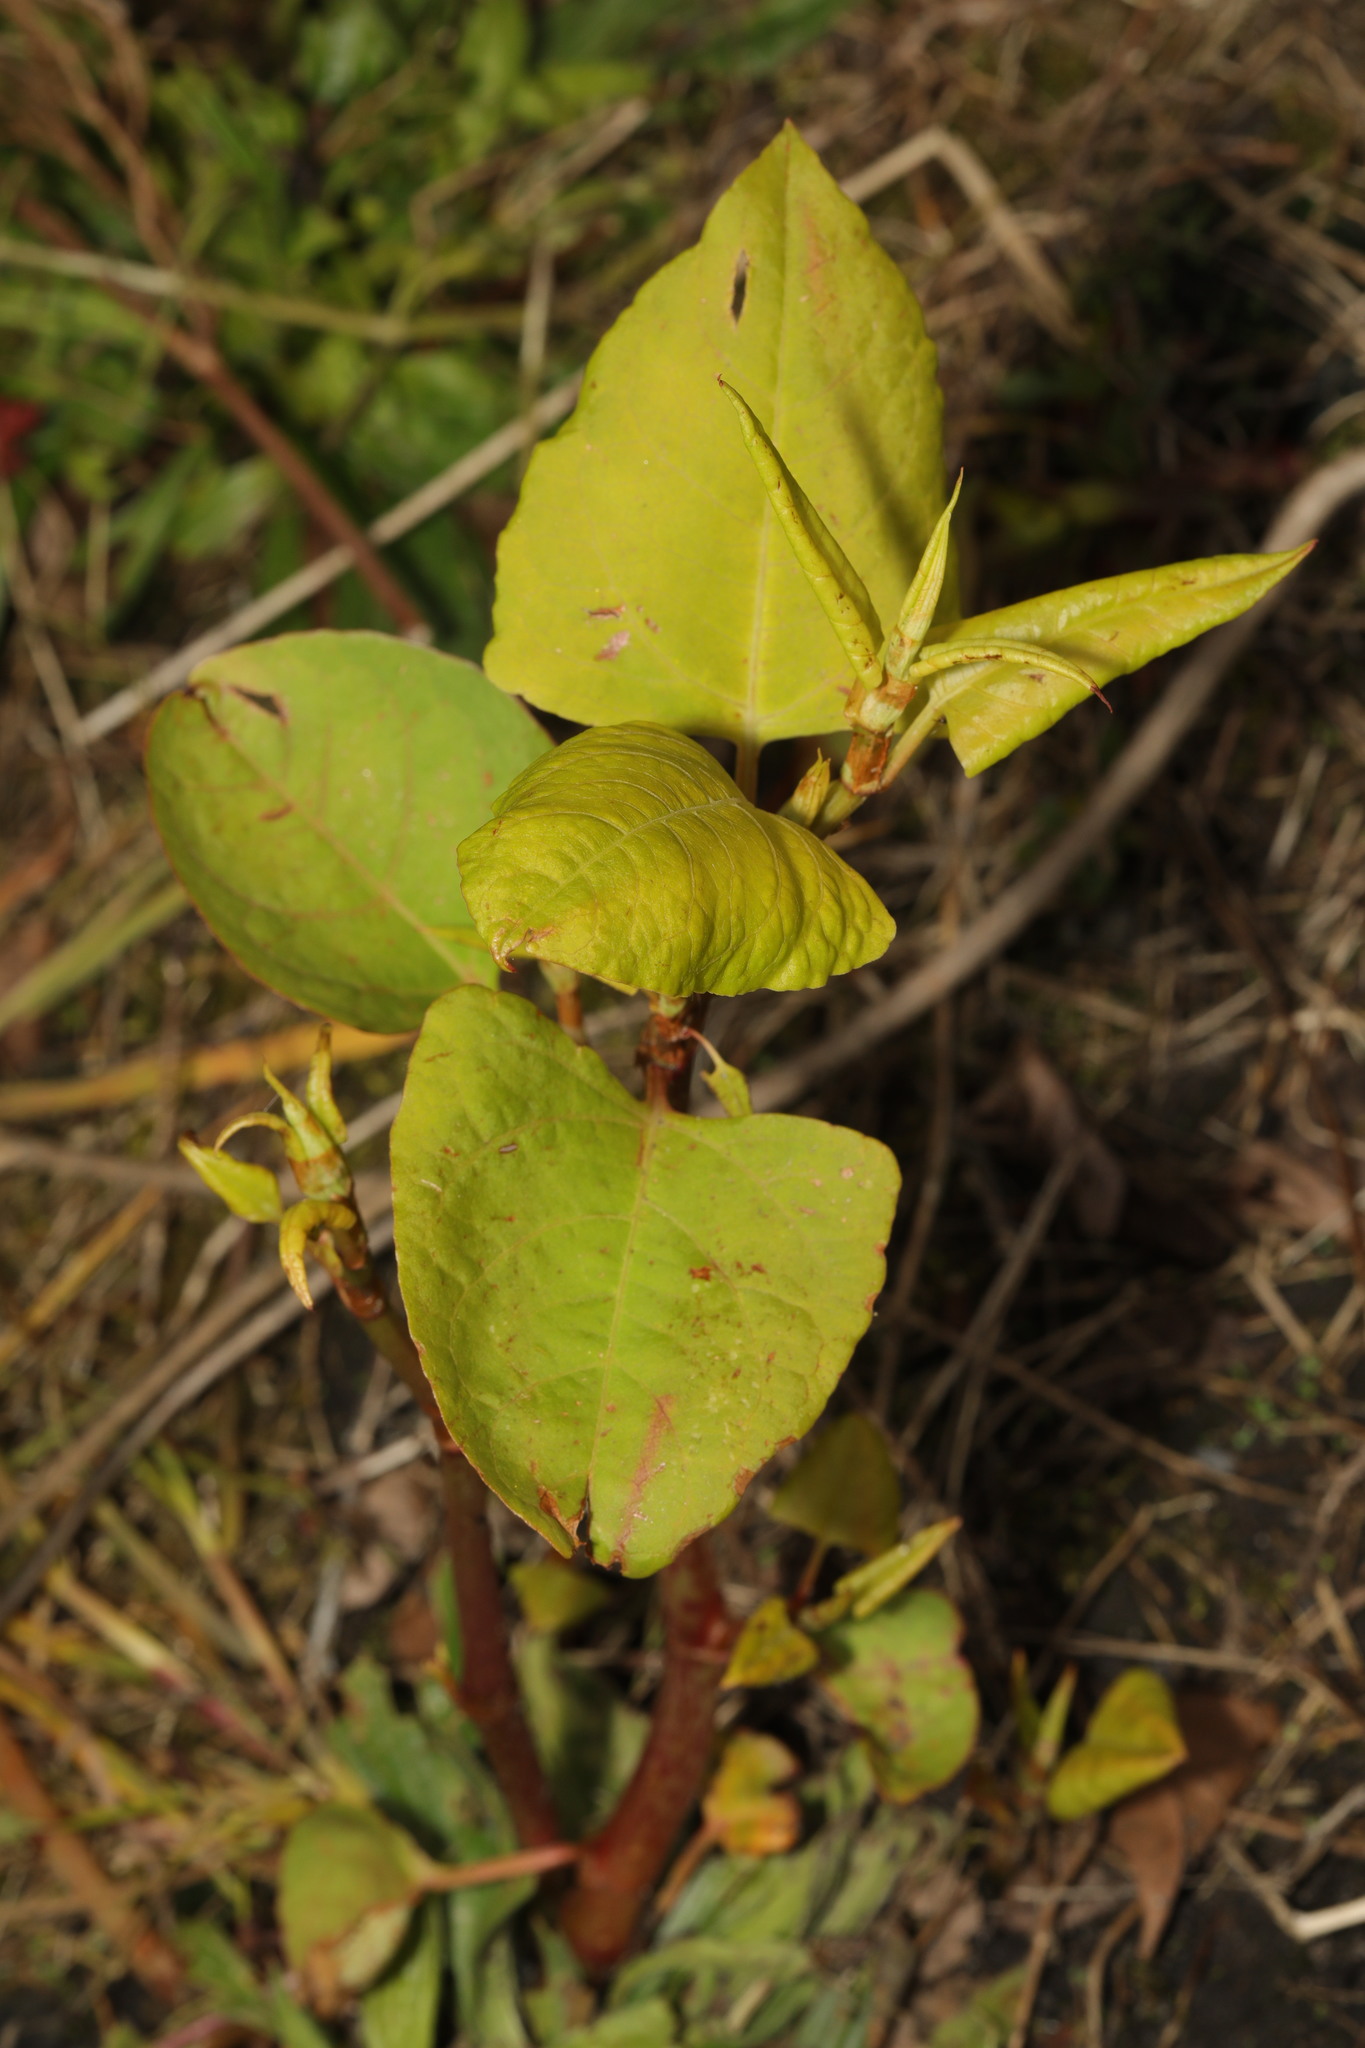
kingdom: Plantae
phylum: Tracheophyta
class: Magnoliopsida
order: Caryophyllales
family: Polygonaceae
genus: Reynoutria
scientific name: Reynoutria japonica
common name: Japanese knotweed
